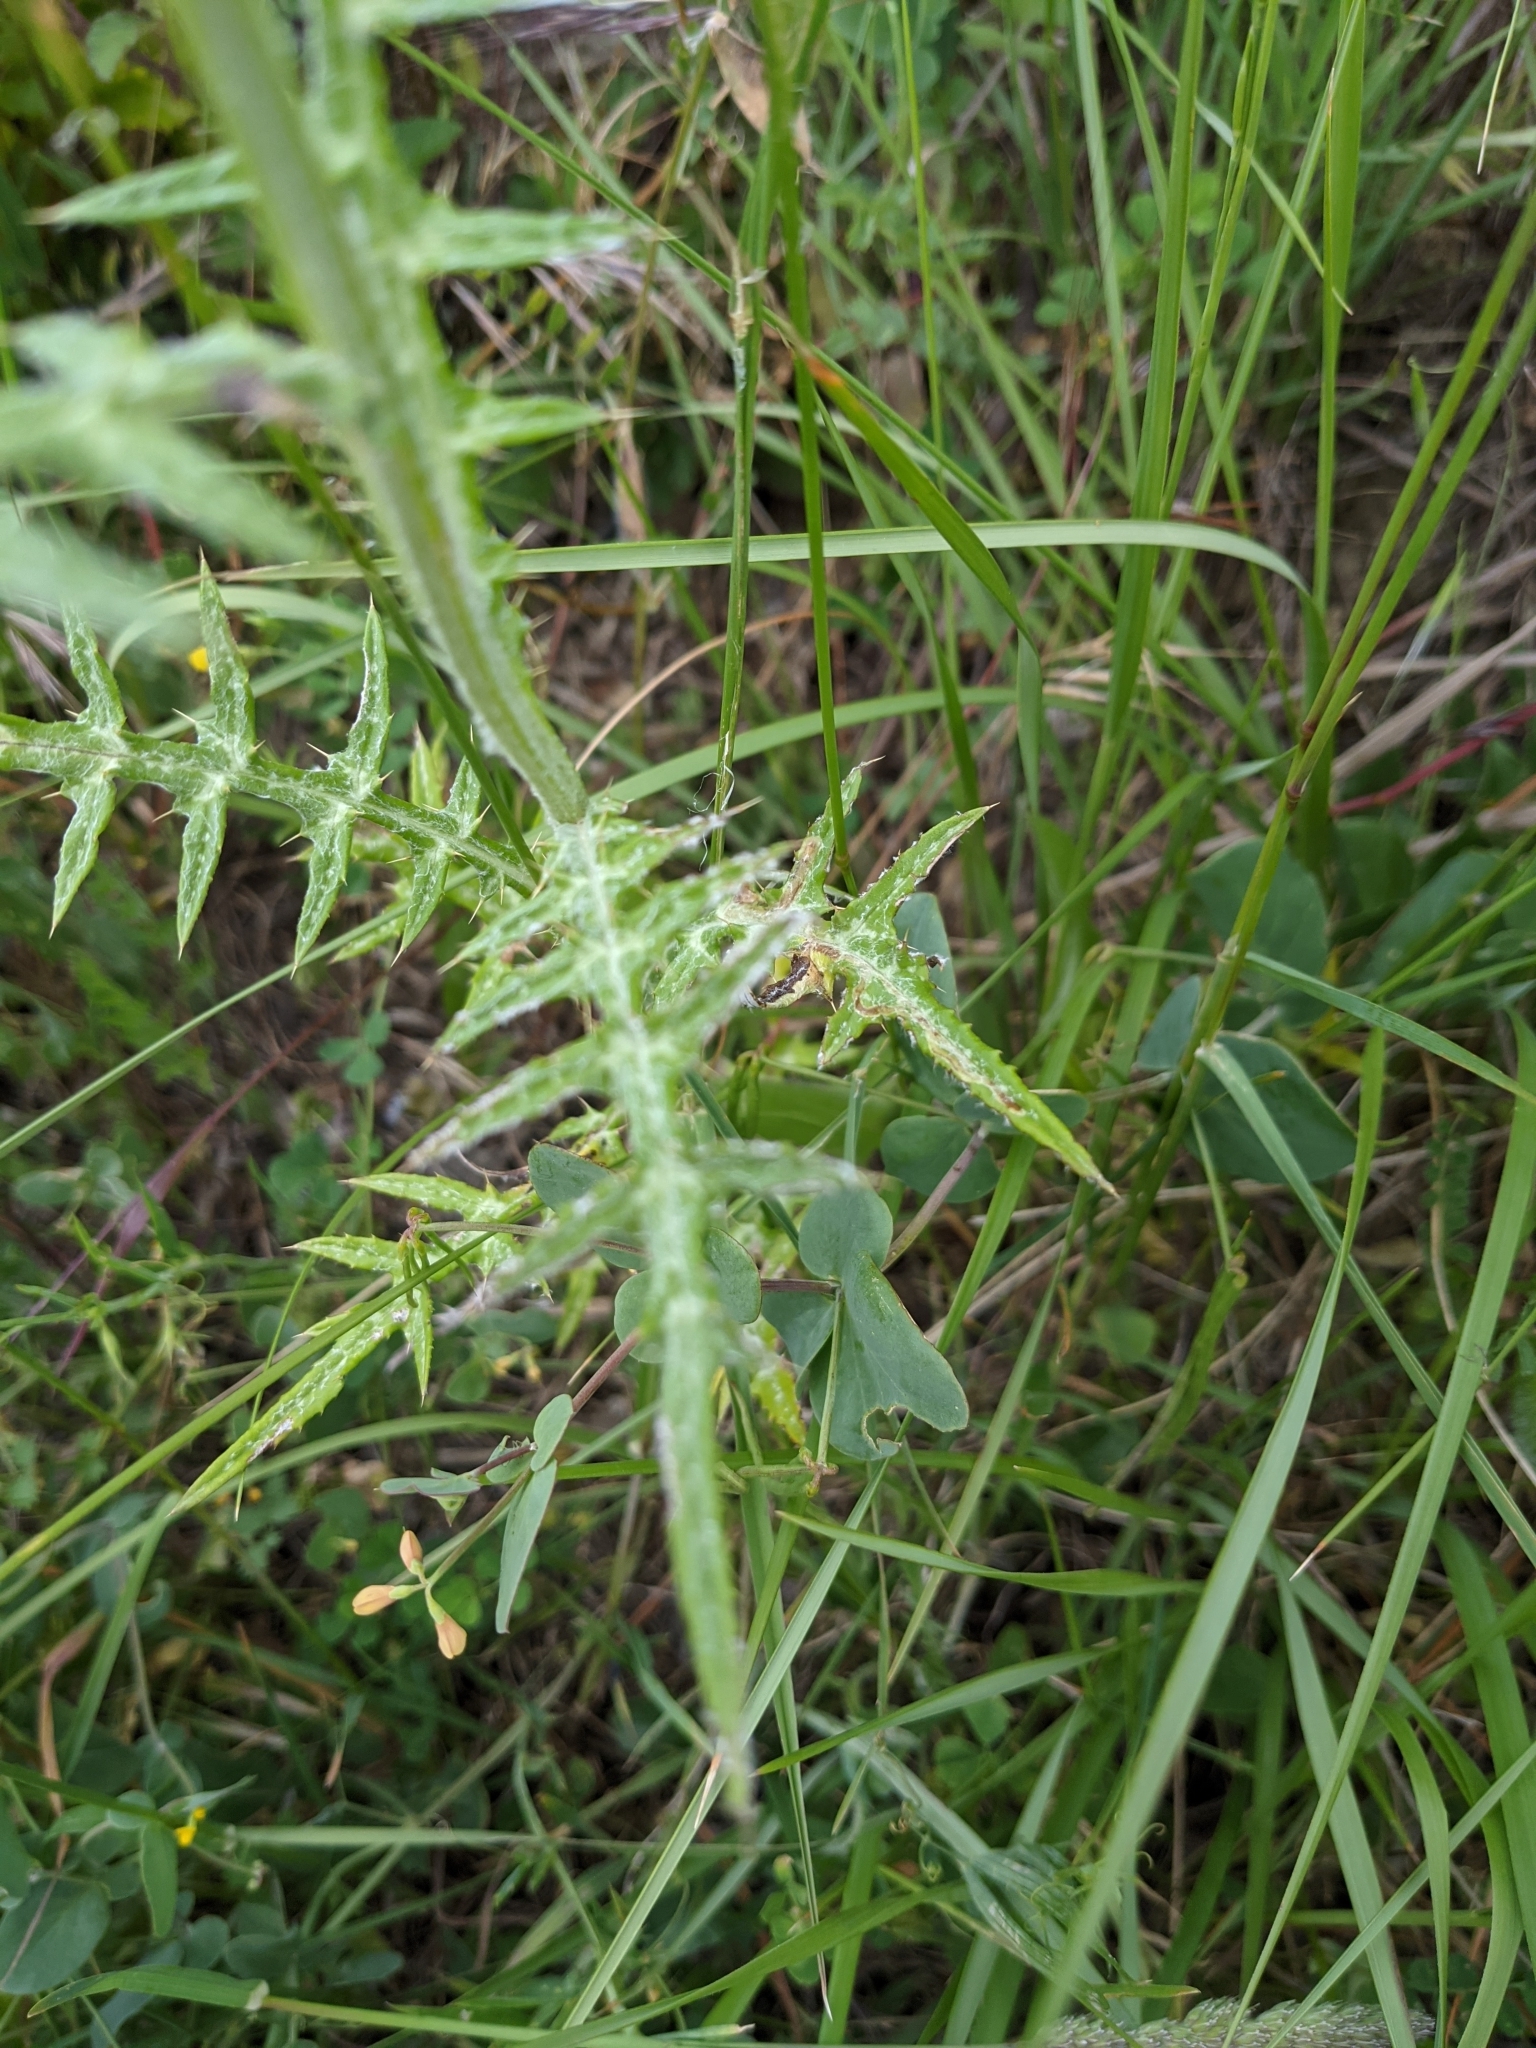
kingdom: Plantae
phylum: Tracheophyta
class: Magnoliopsida
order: Asterales
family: Asteraceae
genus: Galactites
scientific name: Galactites tomentosa
